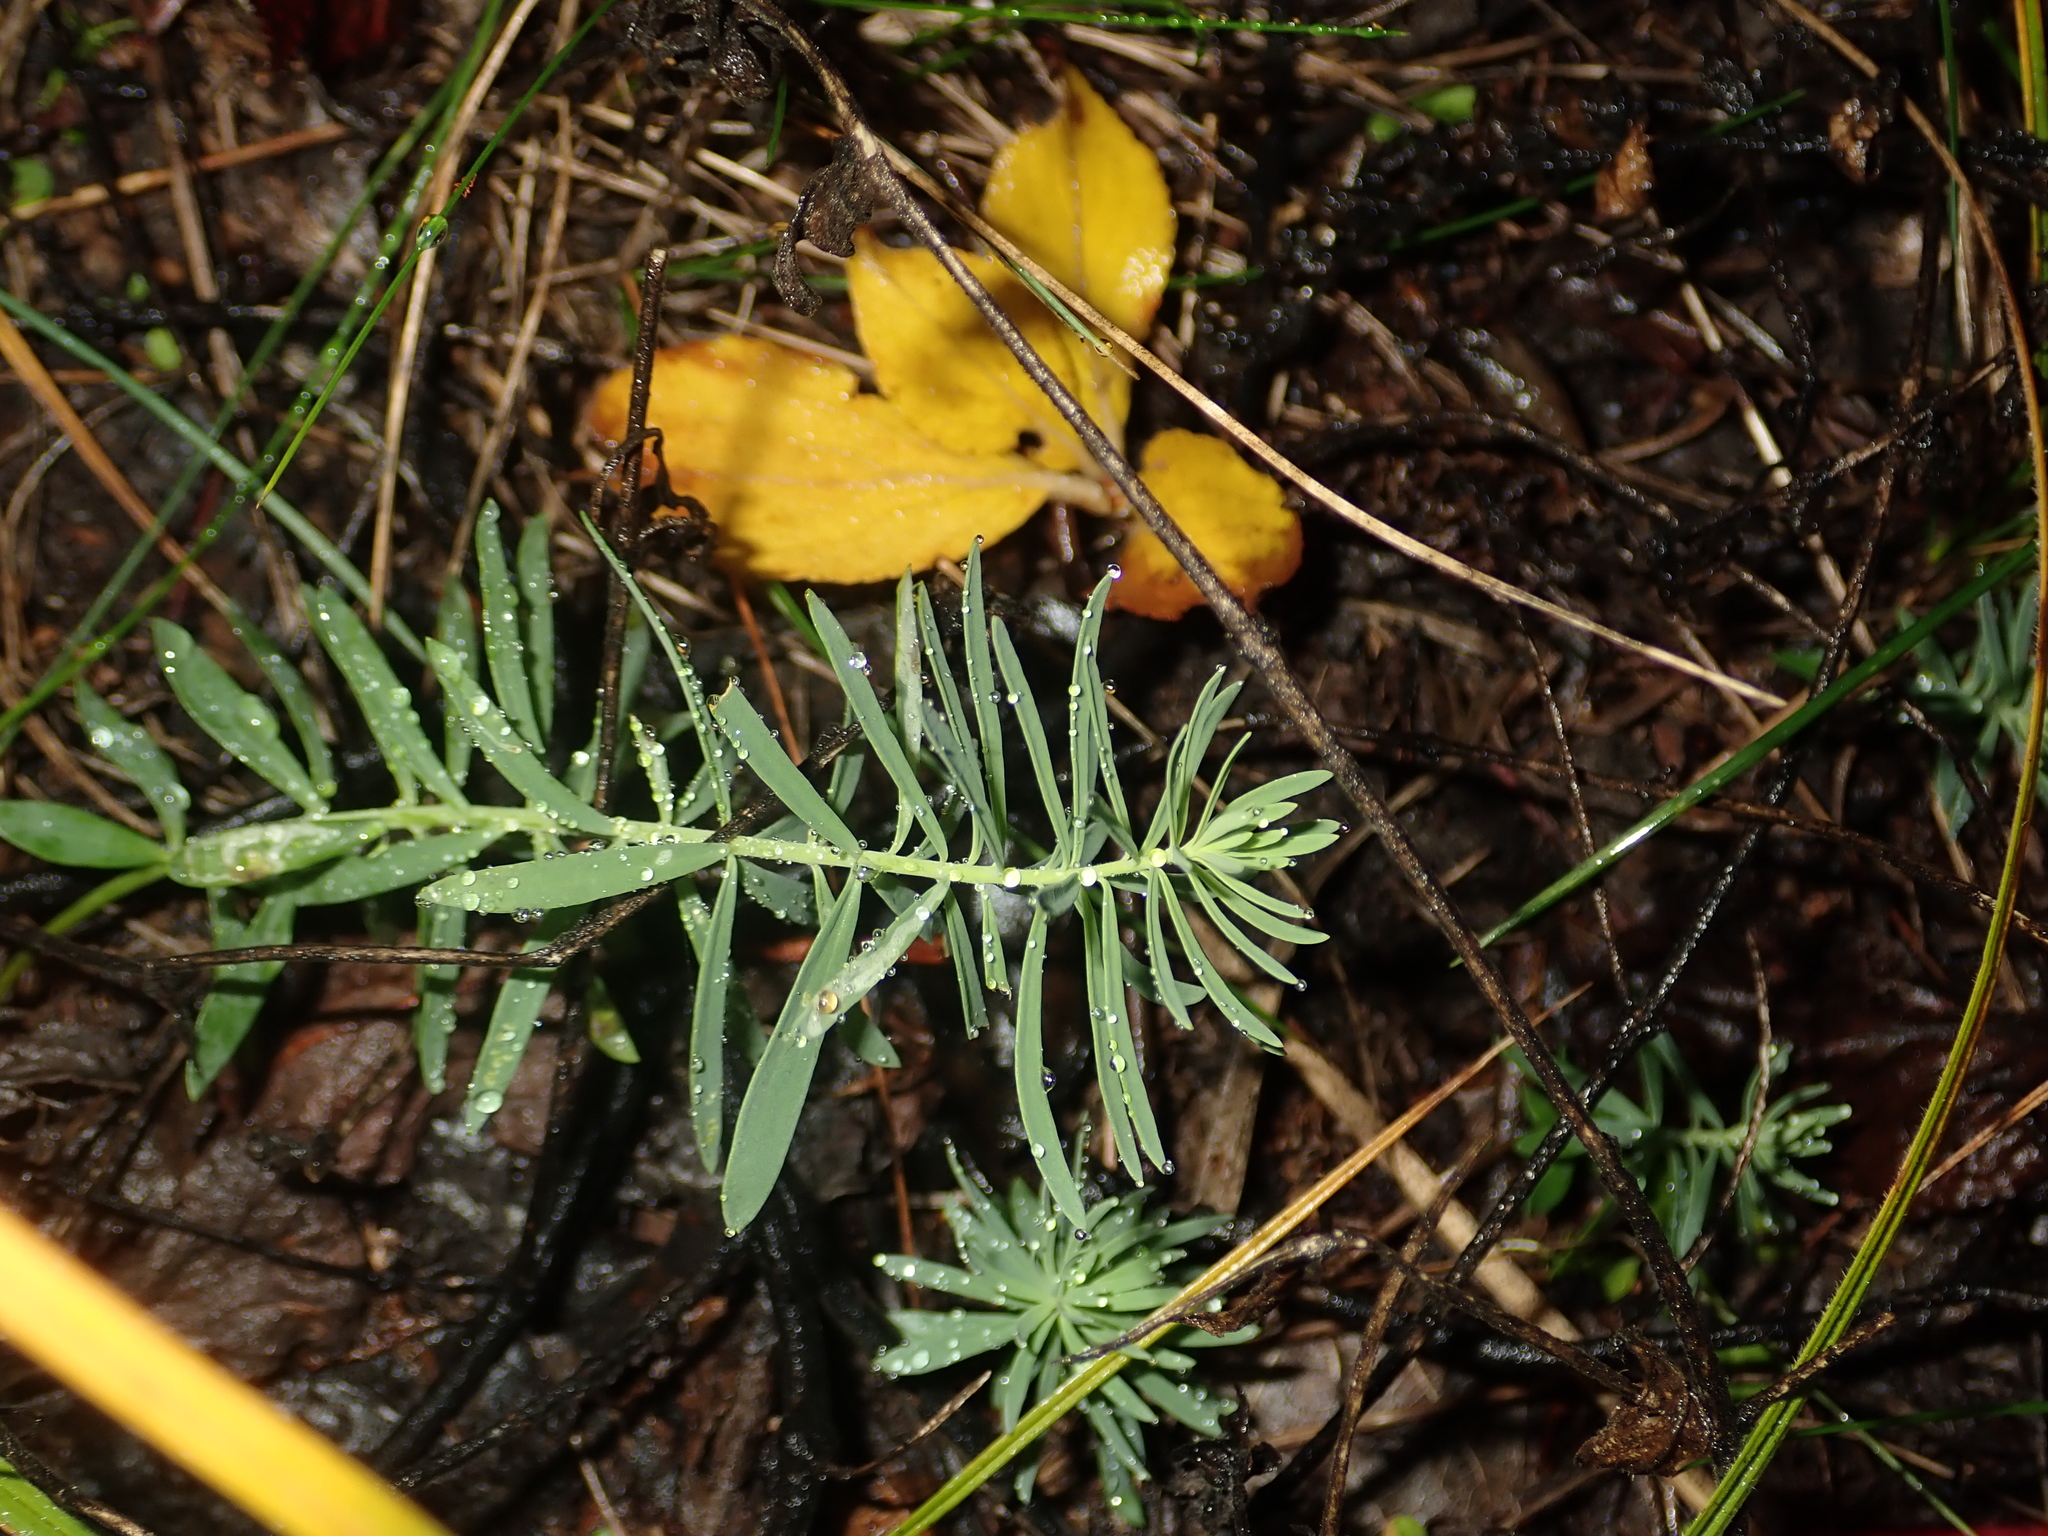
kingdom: Plantae
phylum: Tracheophyta
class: Magnoliopsida
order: Malpighiales
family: Euphorbiaceae
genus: Euphorbia
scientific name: Euphorbia cyparissias
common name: Cypress spurge
